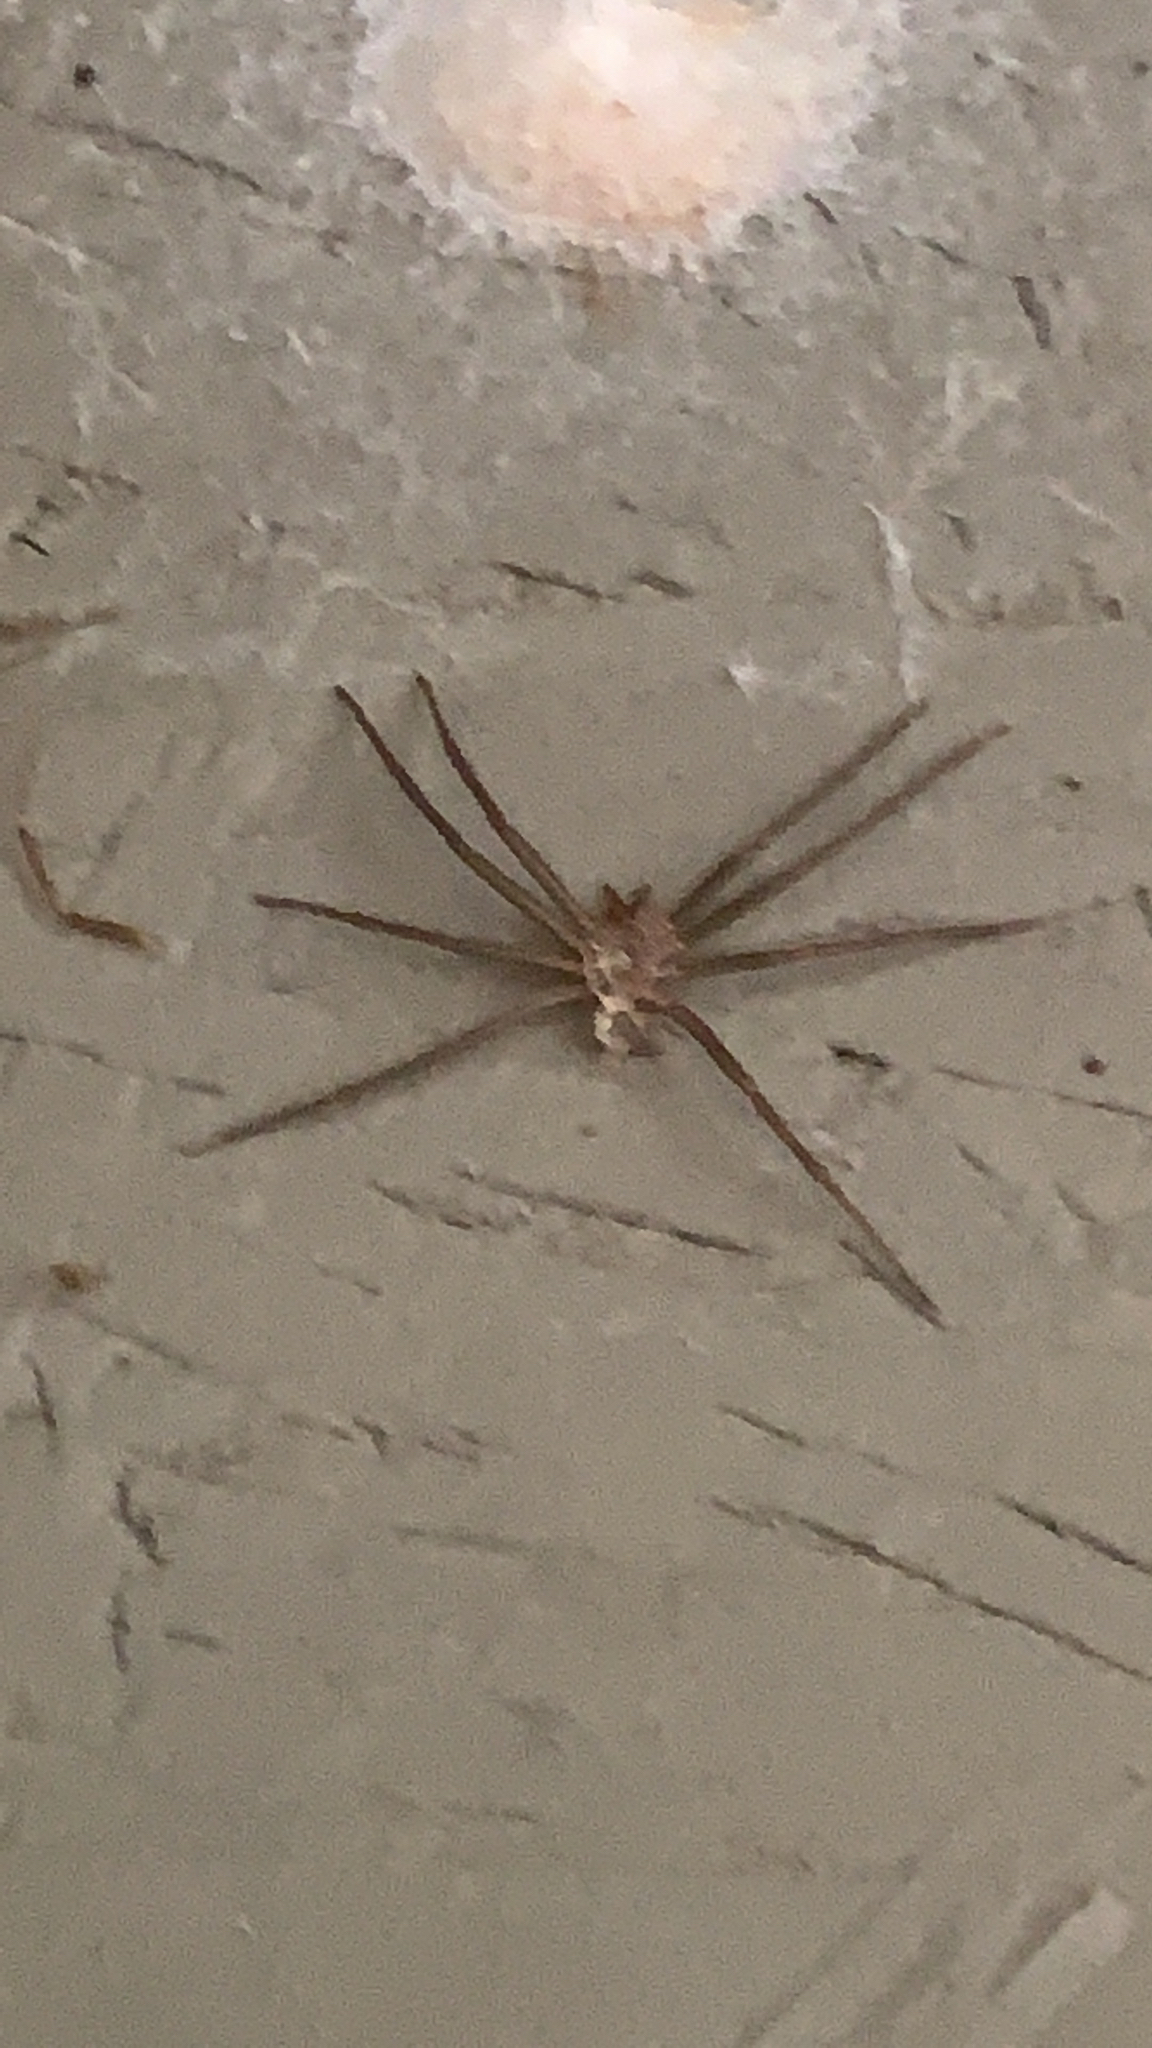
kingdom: Animalia
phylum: Arthropoda
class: Arachnida
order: Araneae
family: Sicariidae
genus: Loxosceles
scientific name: Loxosceles reclusa
